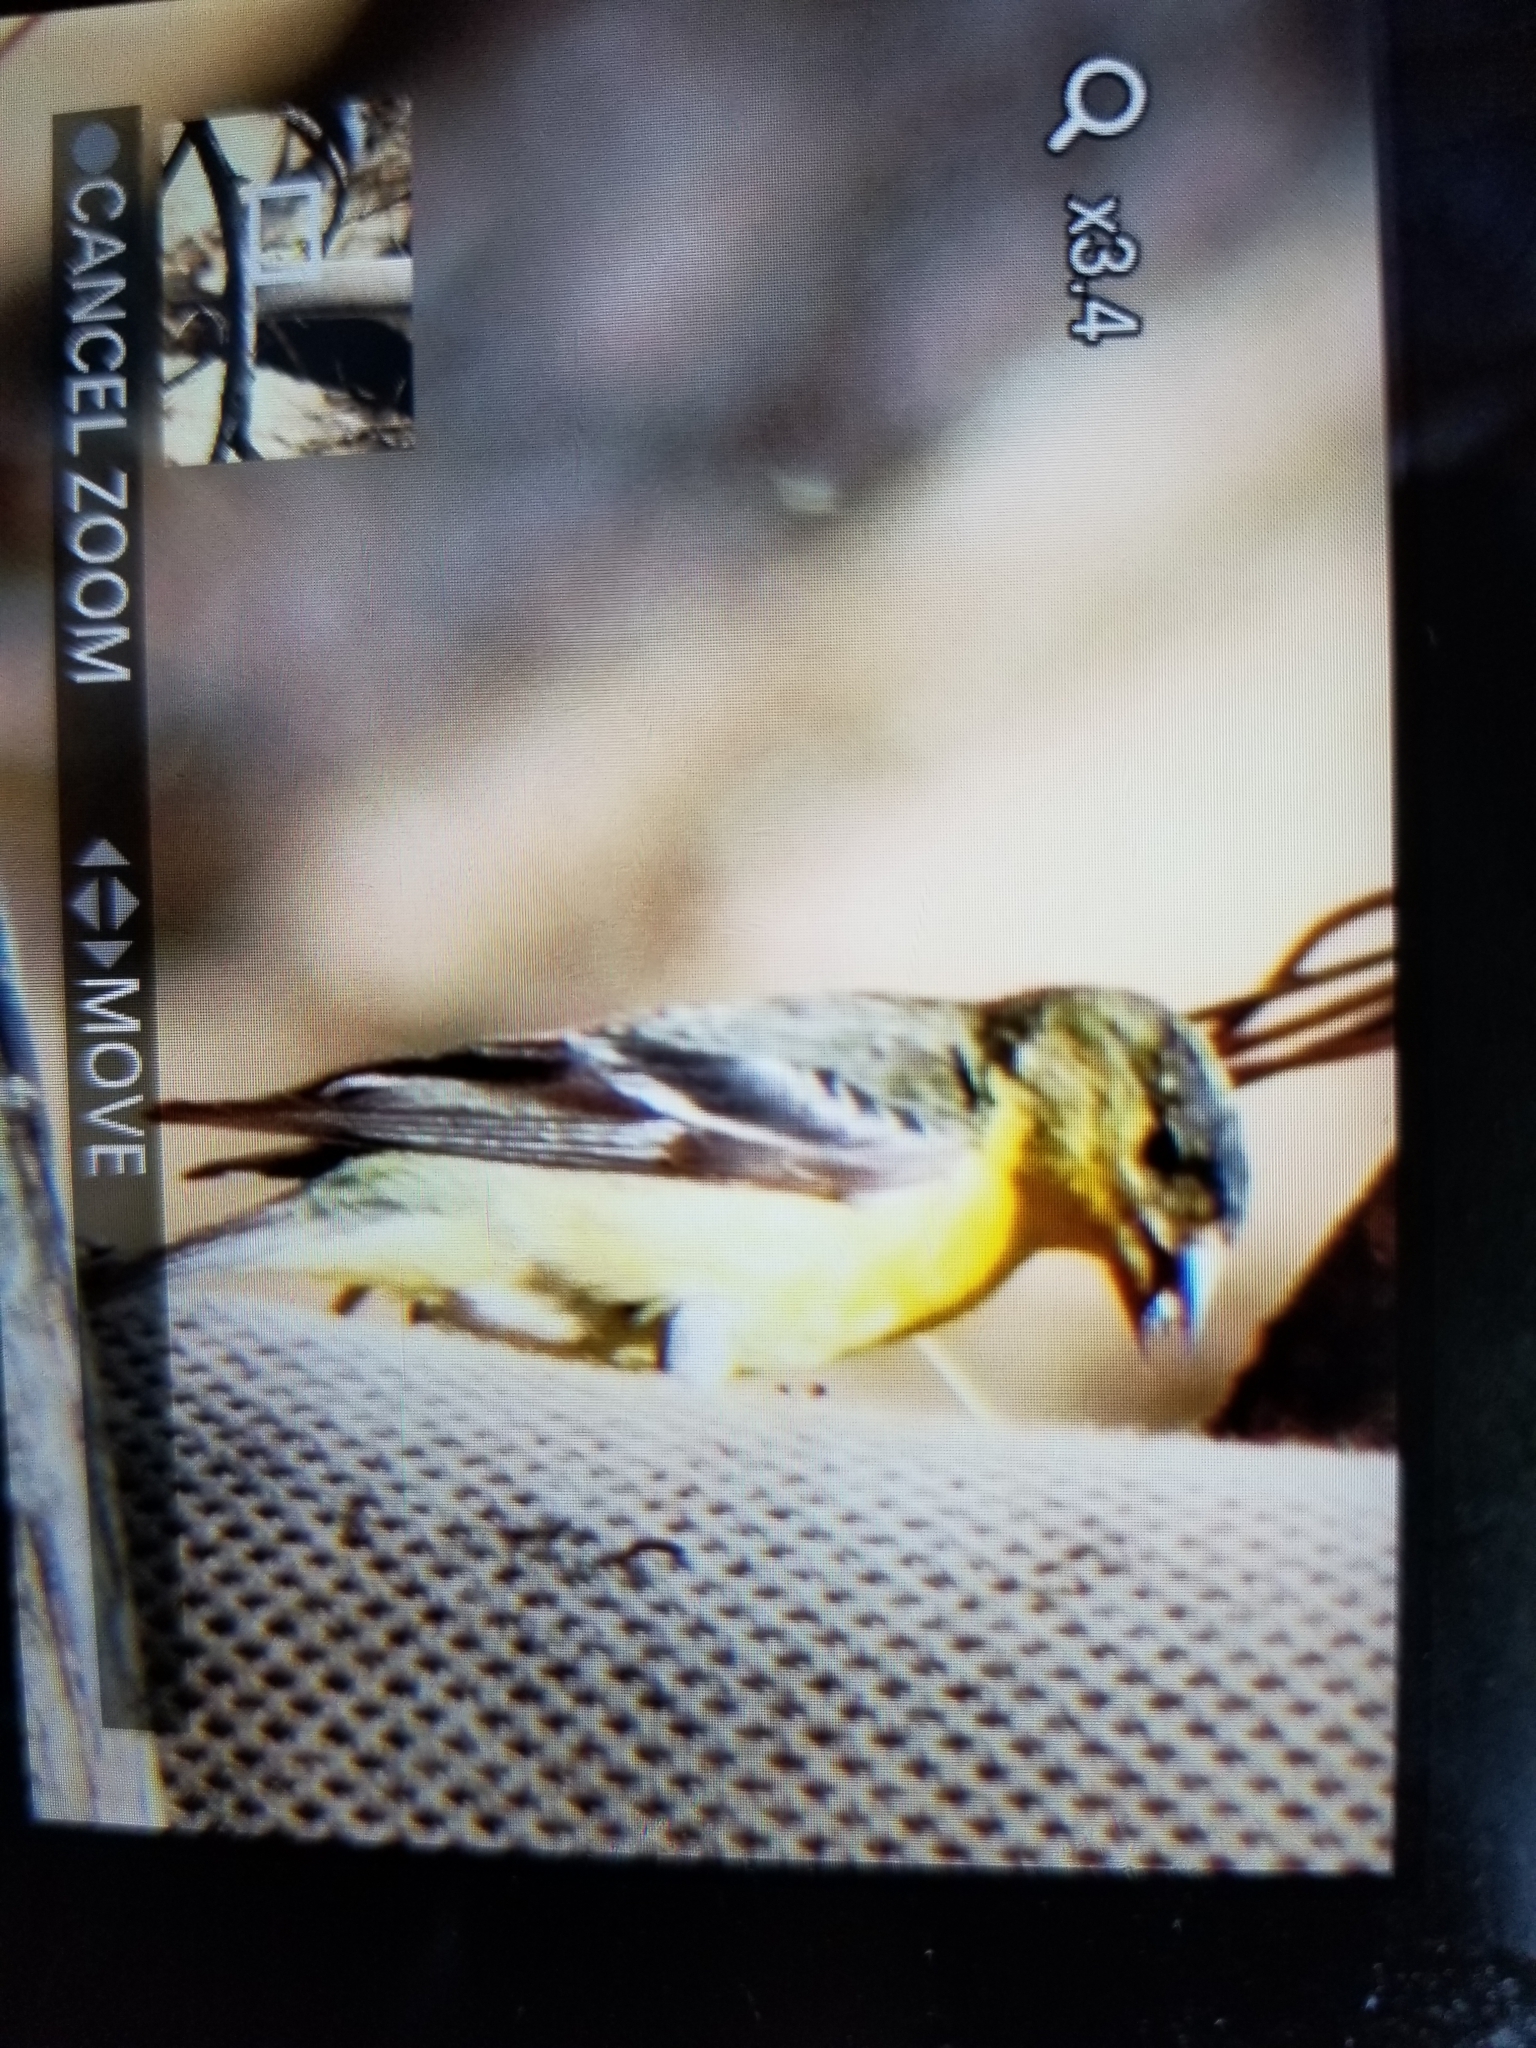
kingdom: Animalia
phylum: Chordata
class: Aves
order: Passeriformes
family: Fringillidae
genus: Spinus
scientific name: Spinus psaltria
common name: Lesser goldfinch
